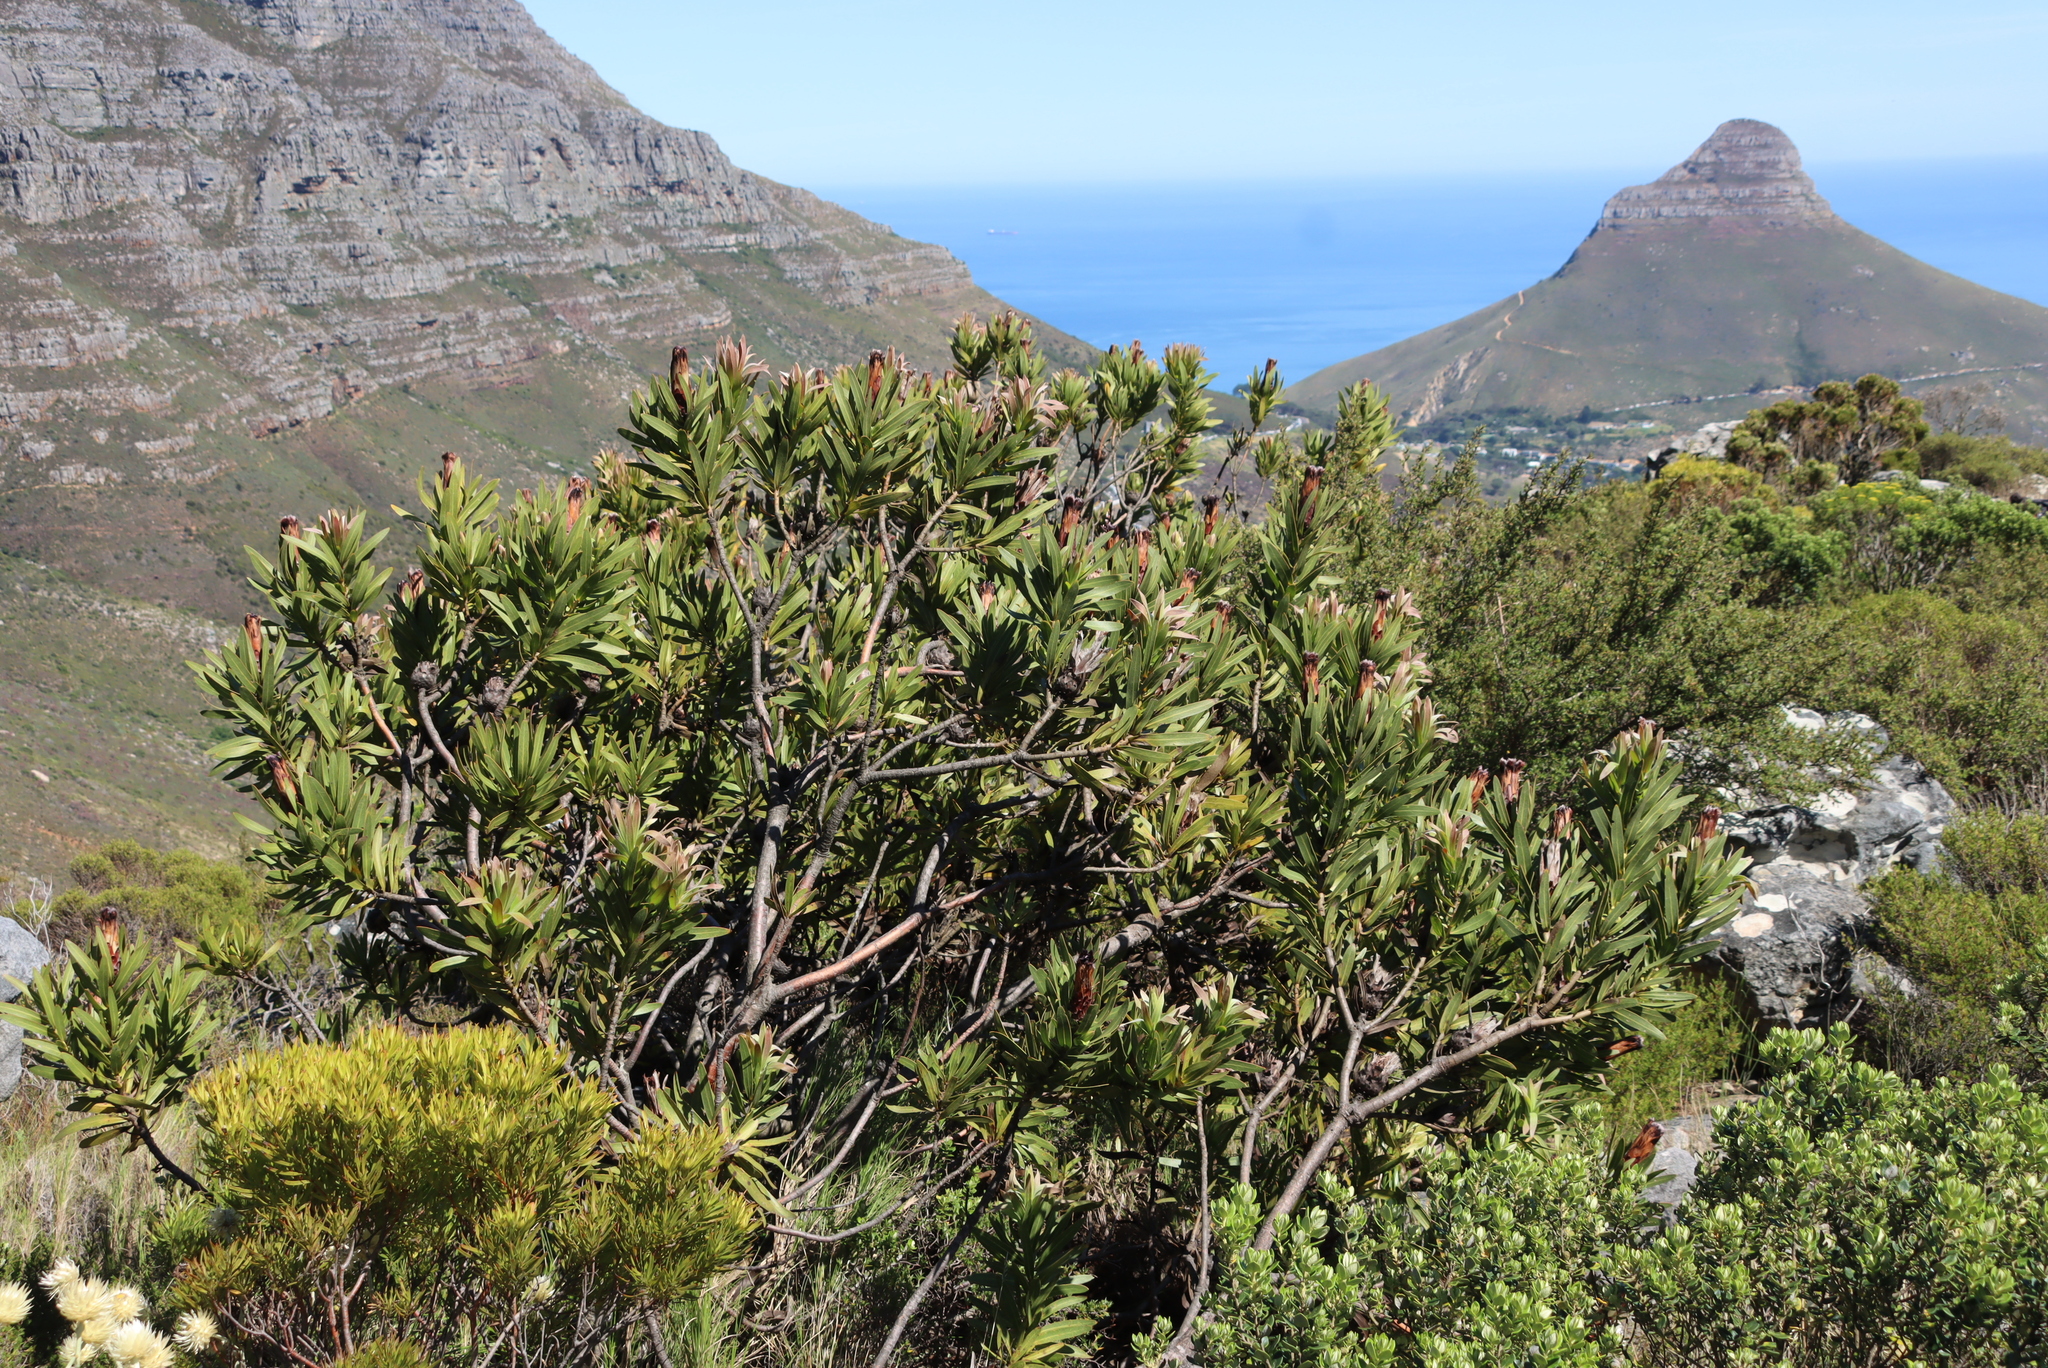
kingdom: Plantae
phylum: Tracheophyta
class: Magnoliopsida
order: Proteales
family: Proteaceae
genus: Protea
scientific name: Protea lepidocarpodendron
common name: Black-bearded protea
